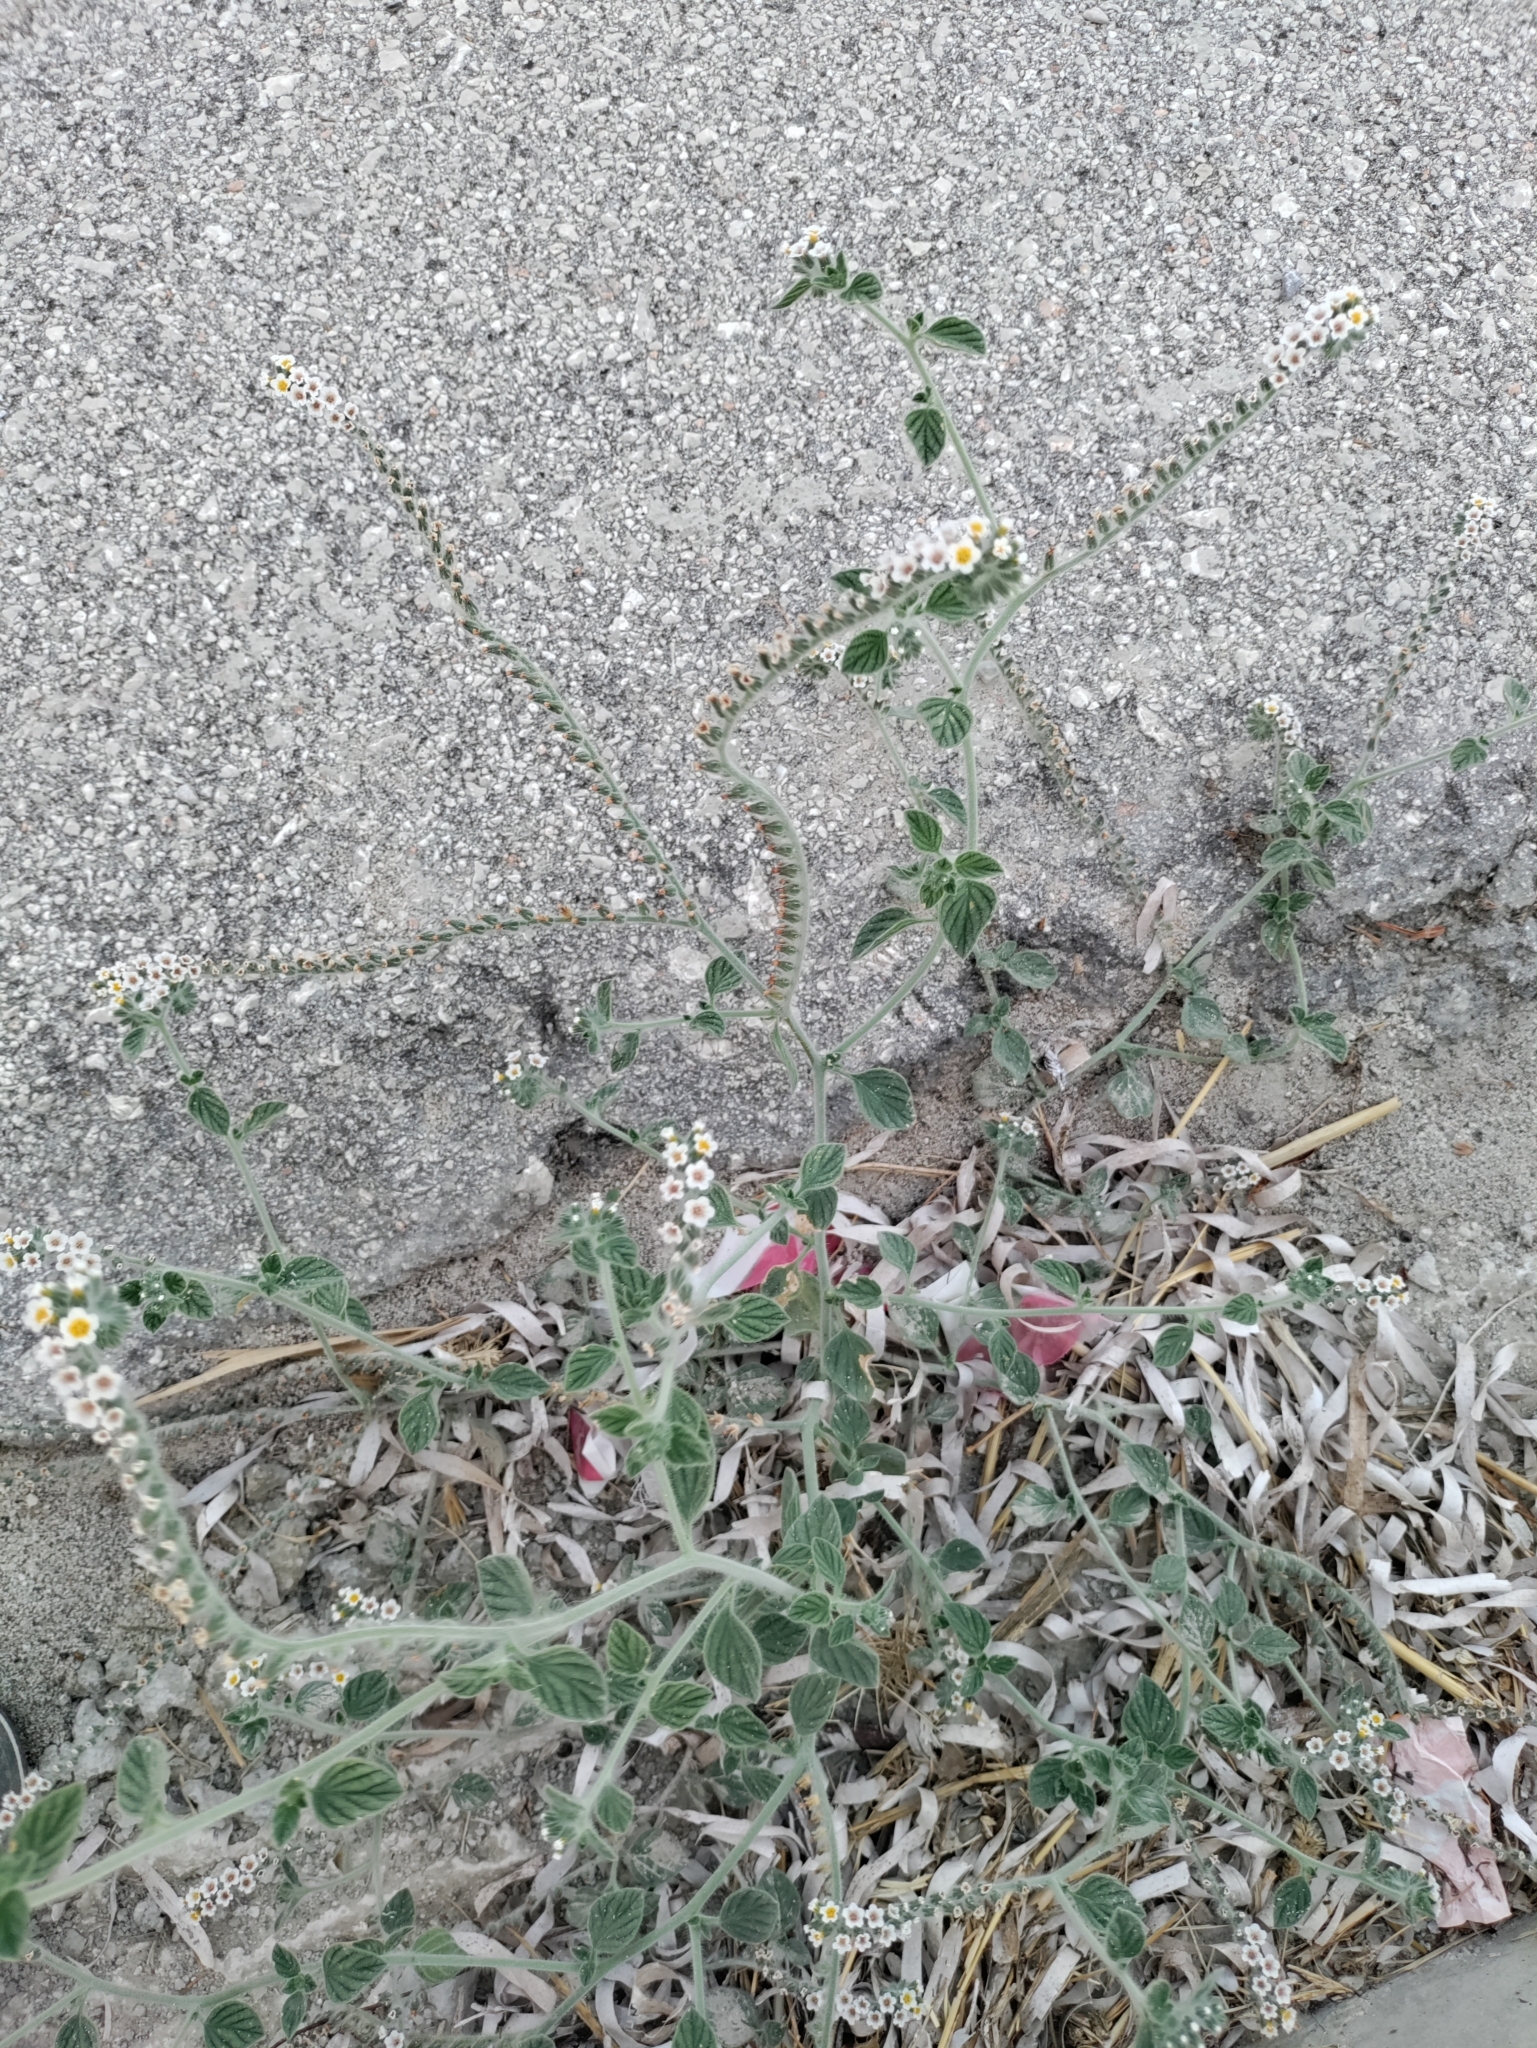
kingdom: Plantae
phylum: Tracheophyta
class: Magnoliopsida
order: Boraginales
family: Heliotropiaceae
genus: Heliotropium
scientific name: Heliotropium hirsutissimum
